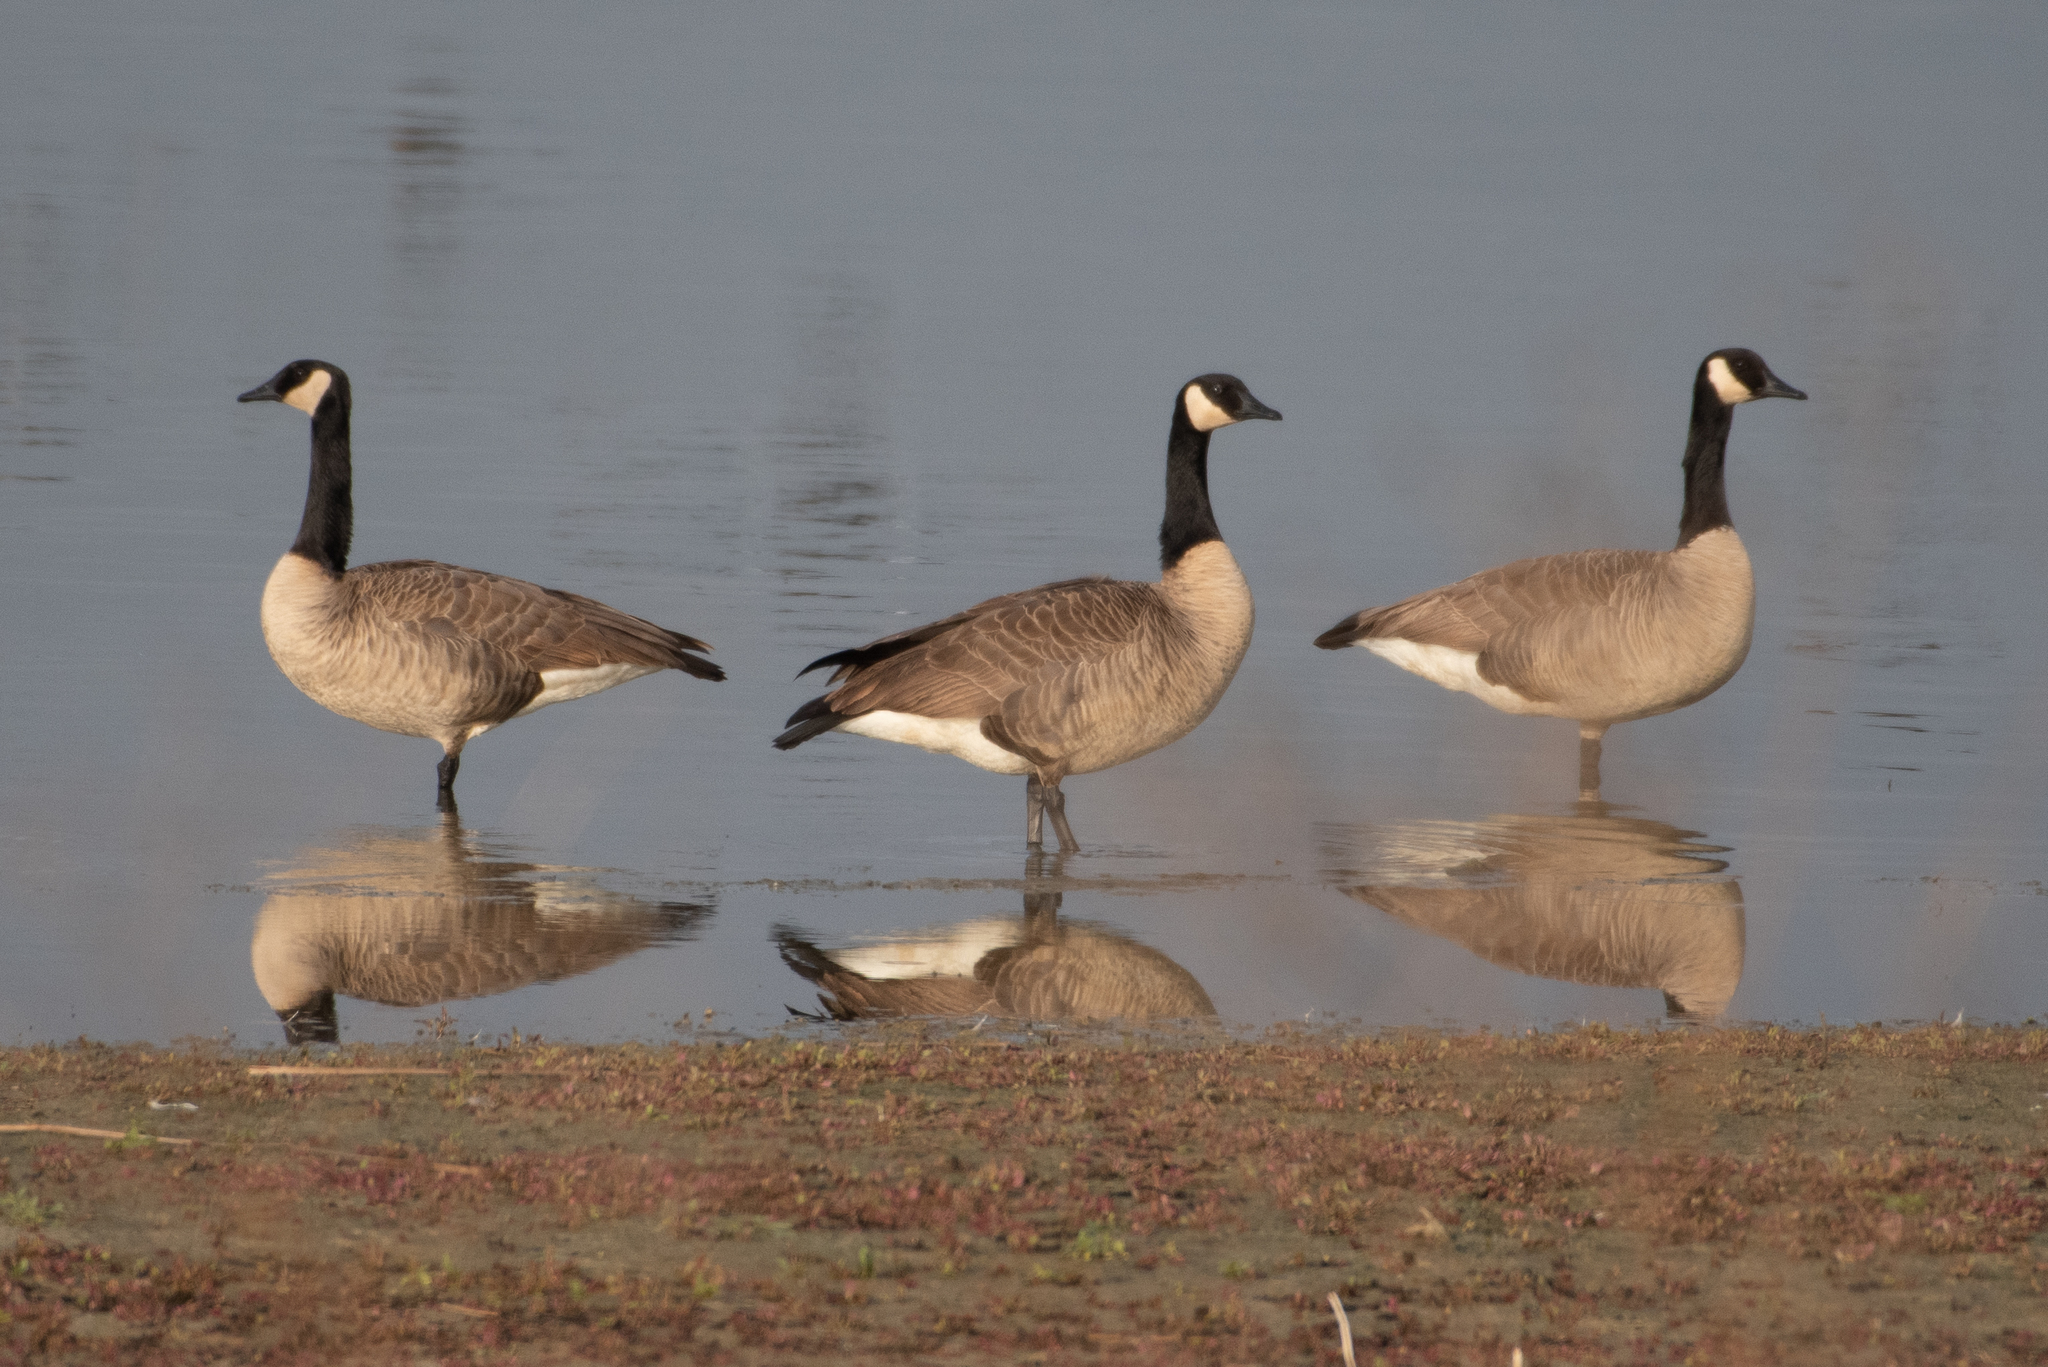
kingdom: Animalia
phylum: Chordata
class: Aves
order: Anseriformes
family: Anatidae
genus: Branta
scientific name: Branta canadensis
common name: Canada goose
